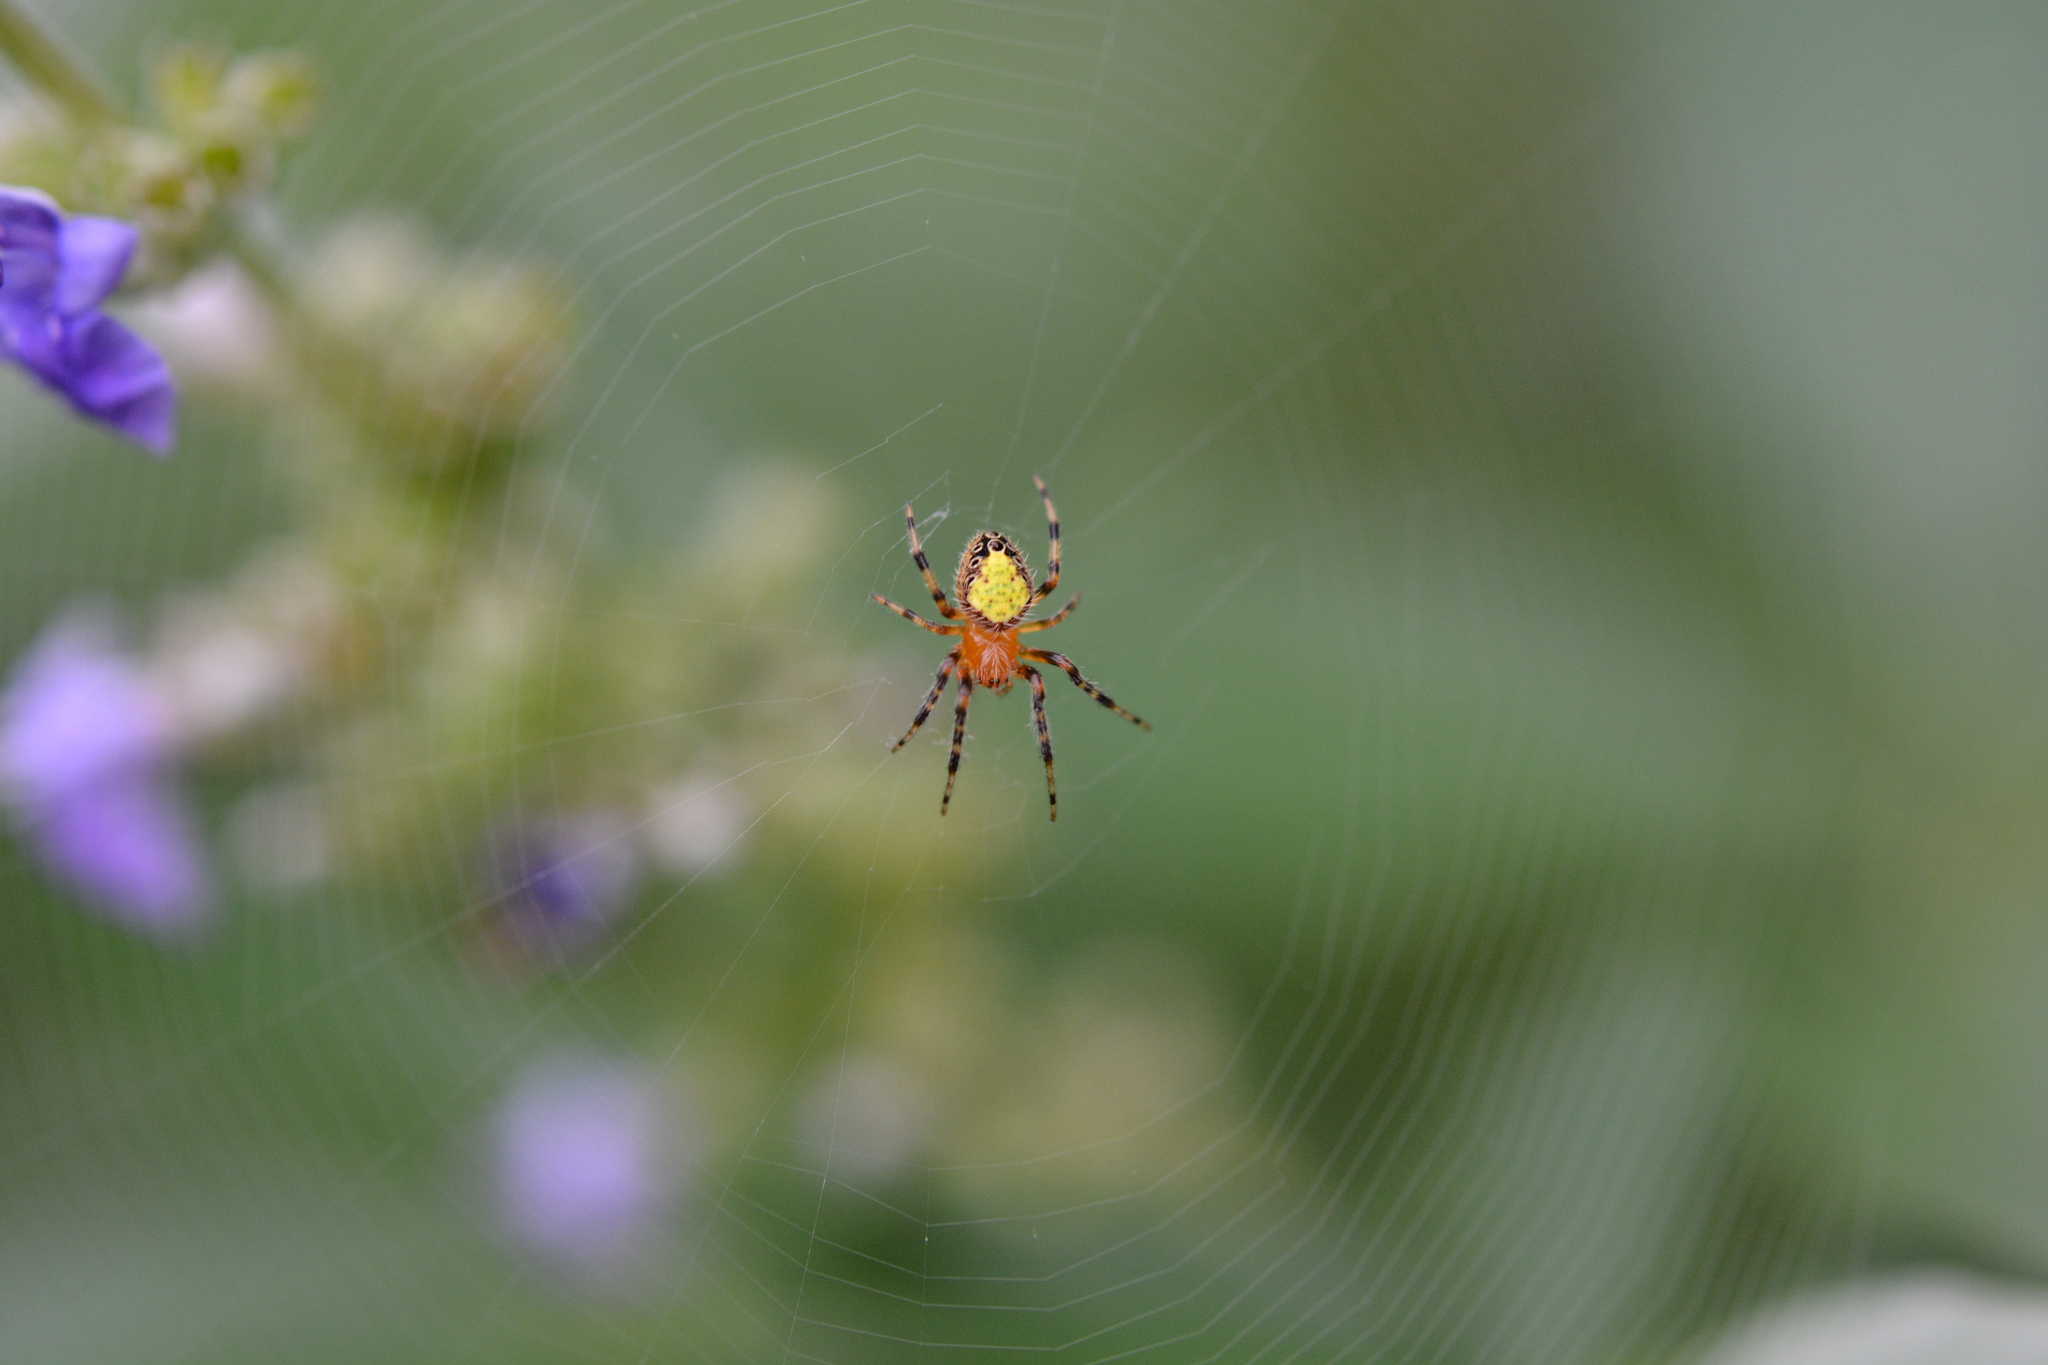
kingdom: Animalia
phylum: Arthropoda
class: Arachnida
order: Araneae
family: Araneidae
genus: Eriophora
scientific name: Eriophora ravilla
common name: Orb weavers
